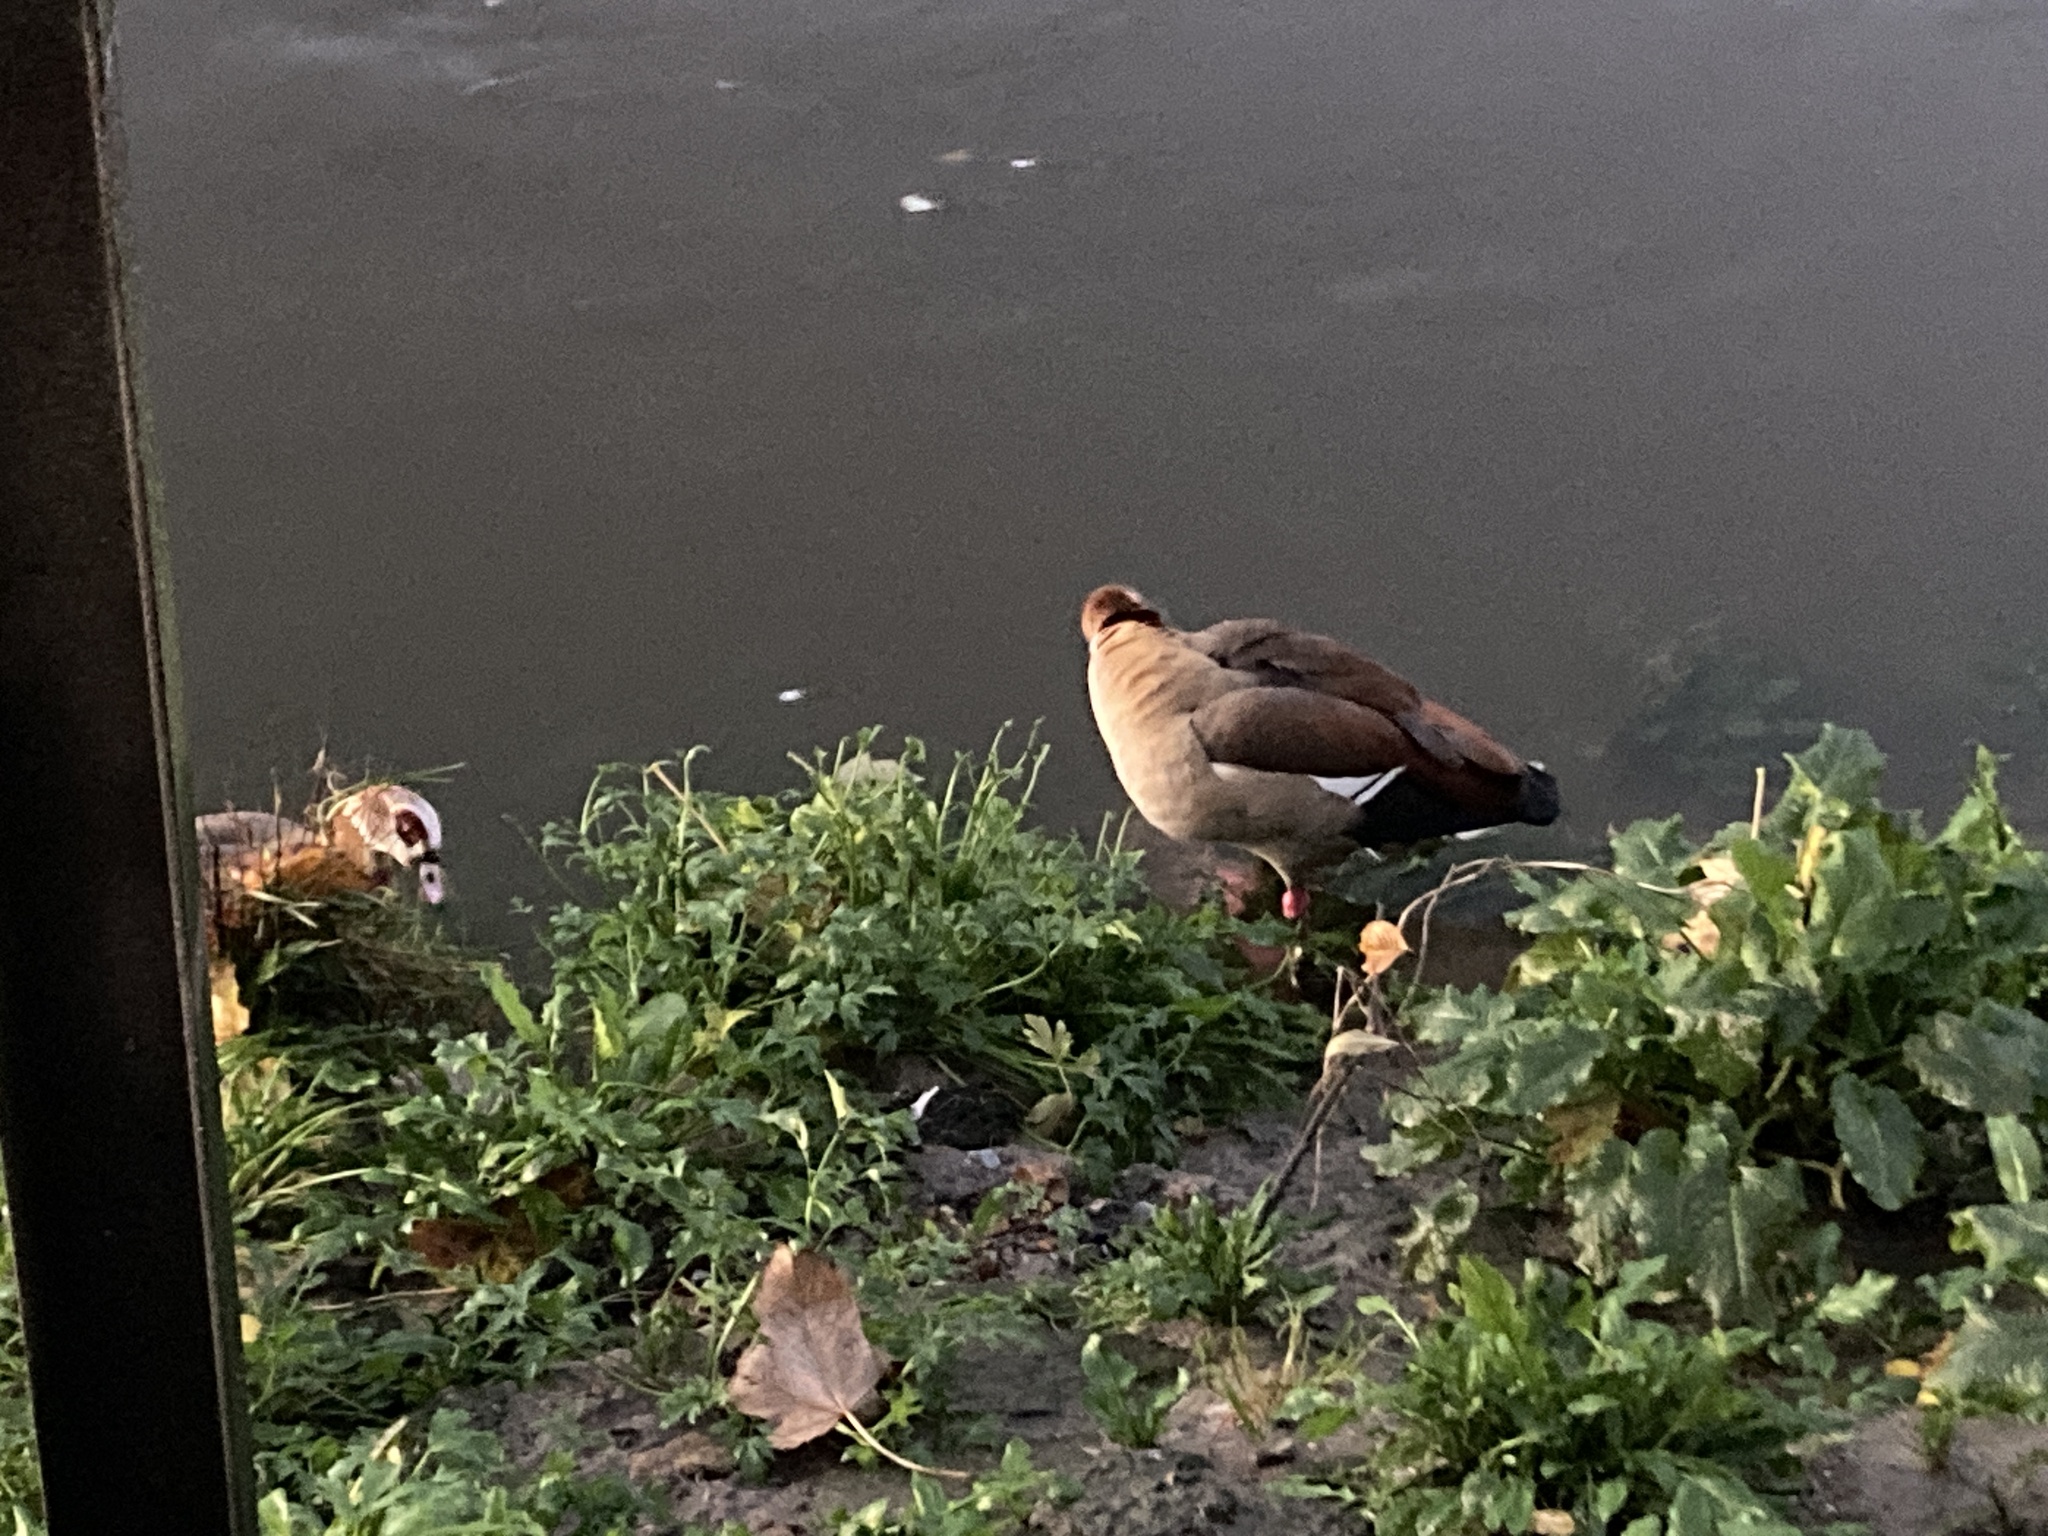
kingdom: Animalia
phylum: Chordata
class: Aves
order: Anseriformes
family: Anatidae
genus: Alopochen
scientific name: Alopochen aegyptiaca
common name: Egyptian goose
